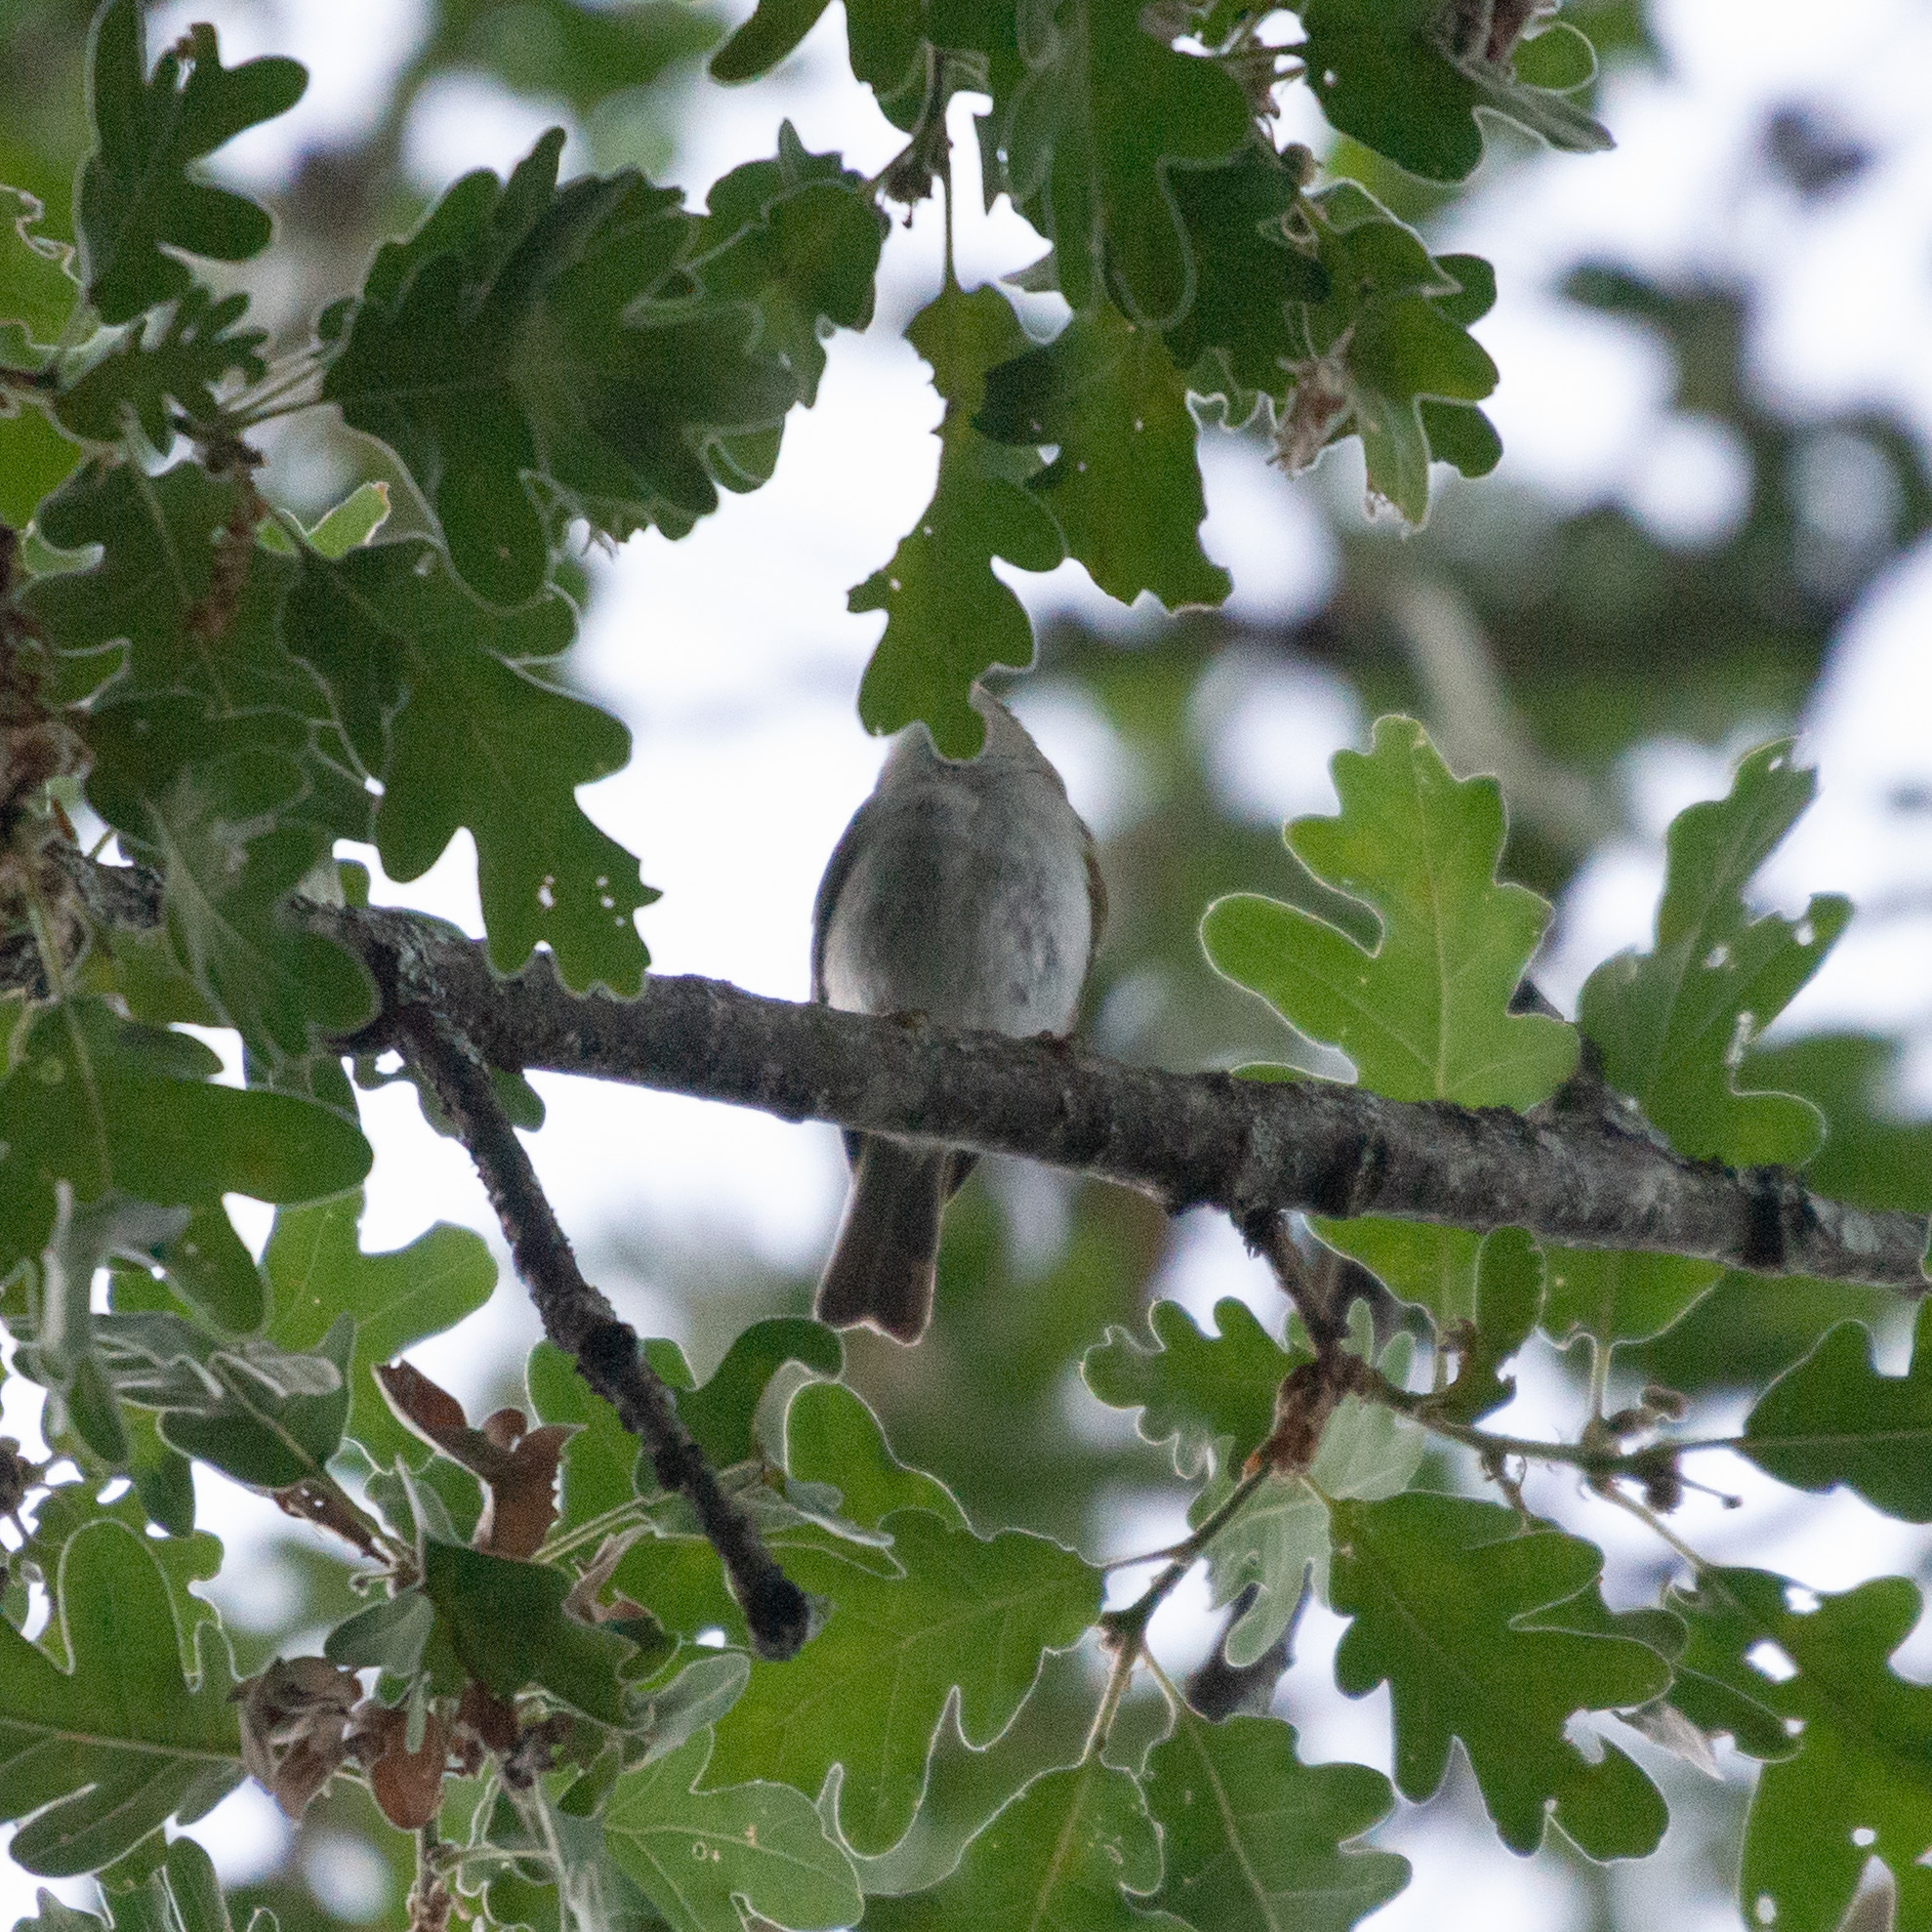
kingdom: Animalia
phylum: Chordata
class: Aves
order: Passeriformes
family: Phylloscopidae
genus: Phylloscopus
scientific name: Phylloscopus bonelli
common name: Western bonelli's warbler
